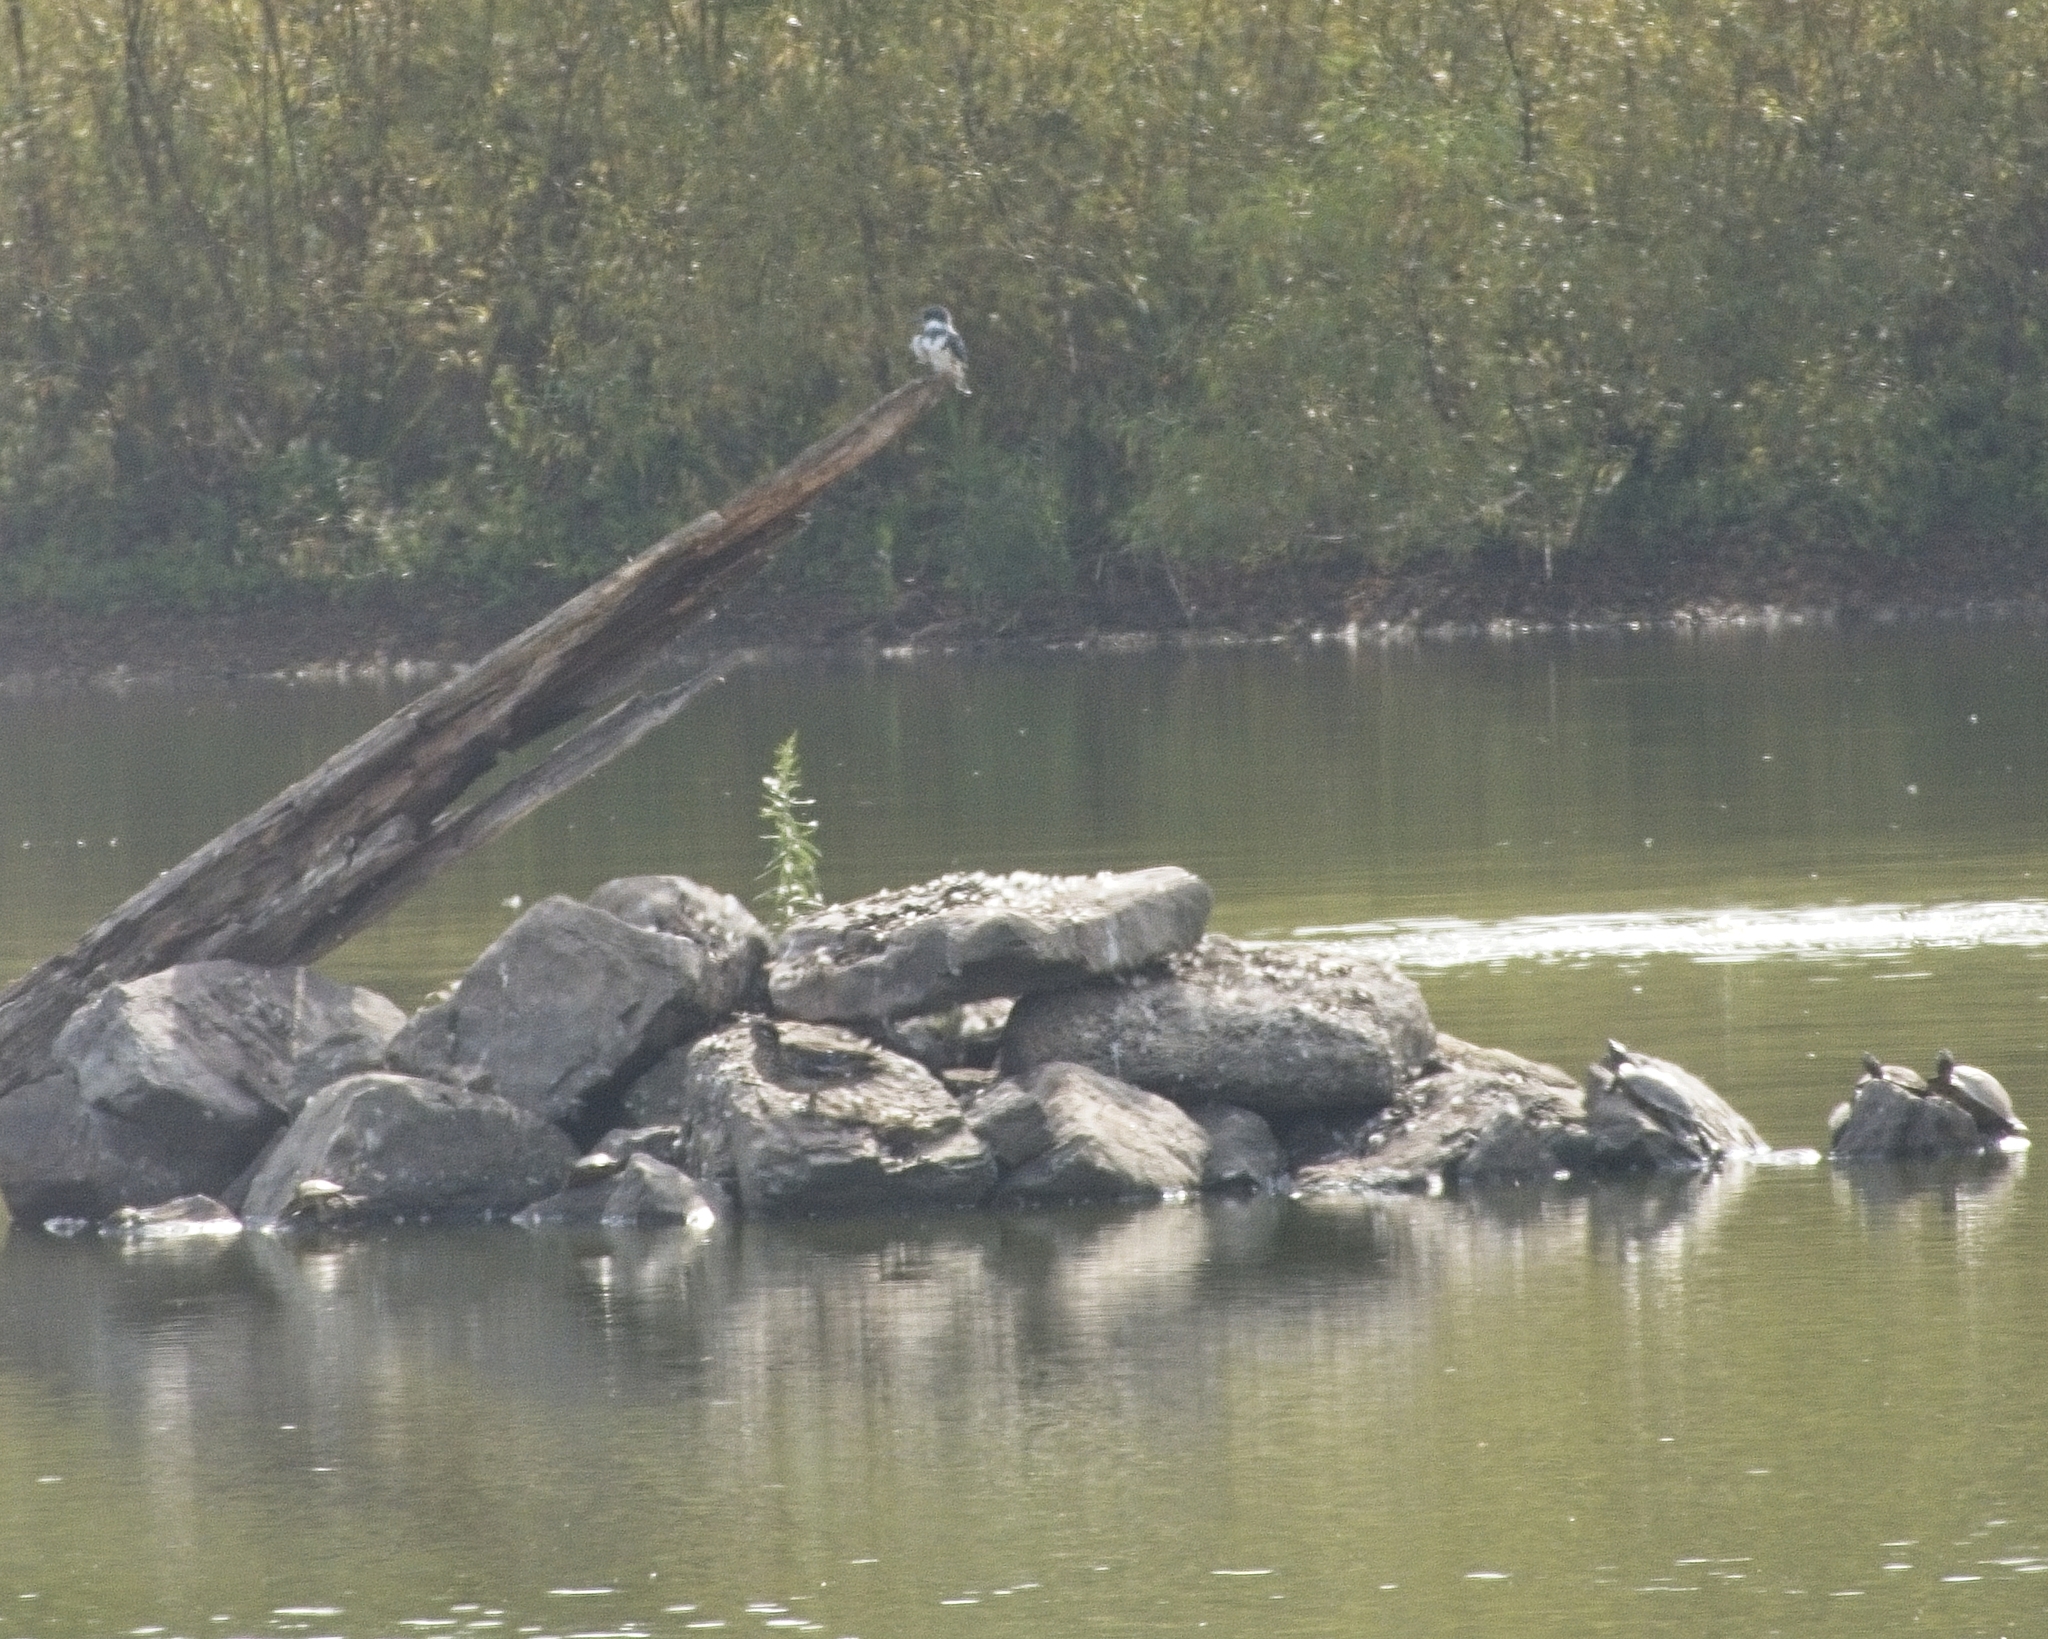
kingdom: Animalia
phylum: Chordata
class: Aves
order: Coraciiformes
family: Alcedinidae
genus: Megaceryle
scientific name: Megaceryle alcyon
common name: Belted kingfisher
